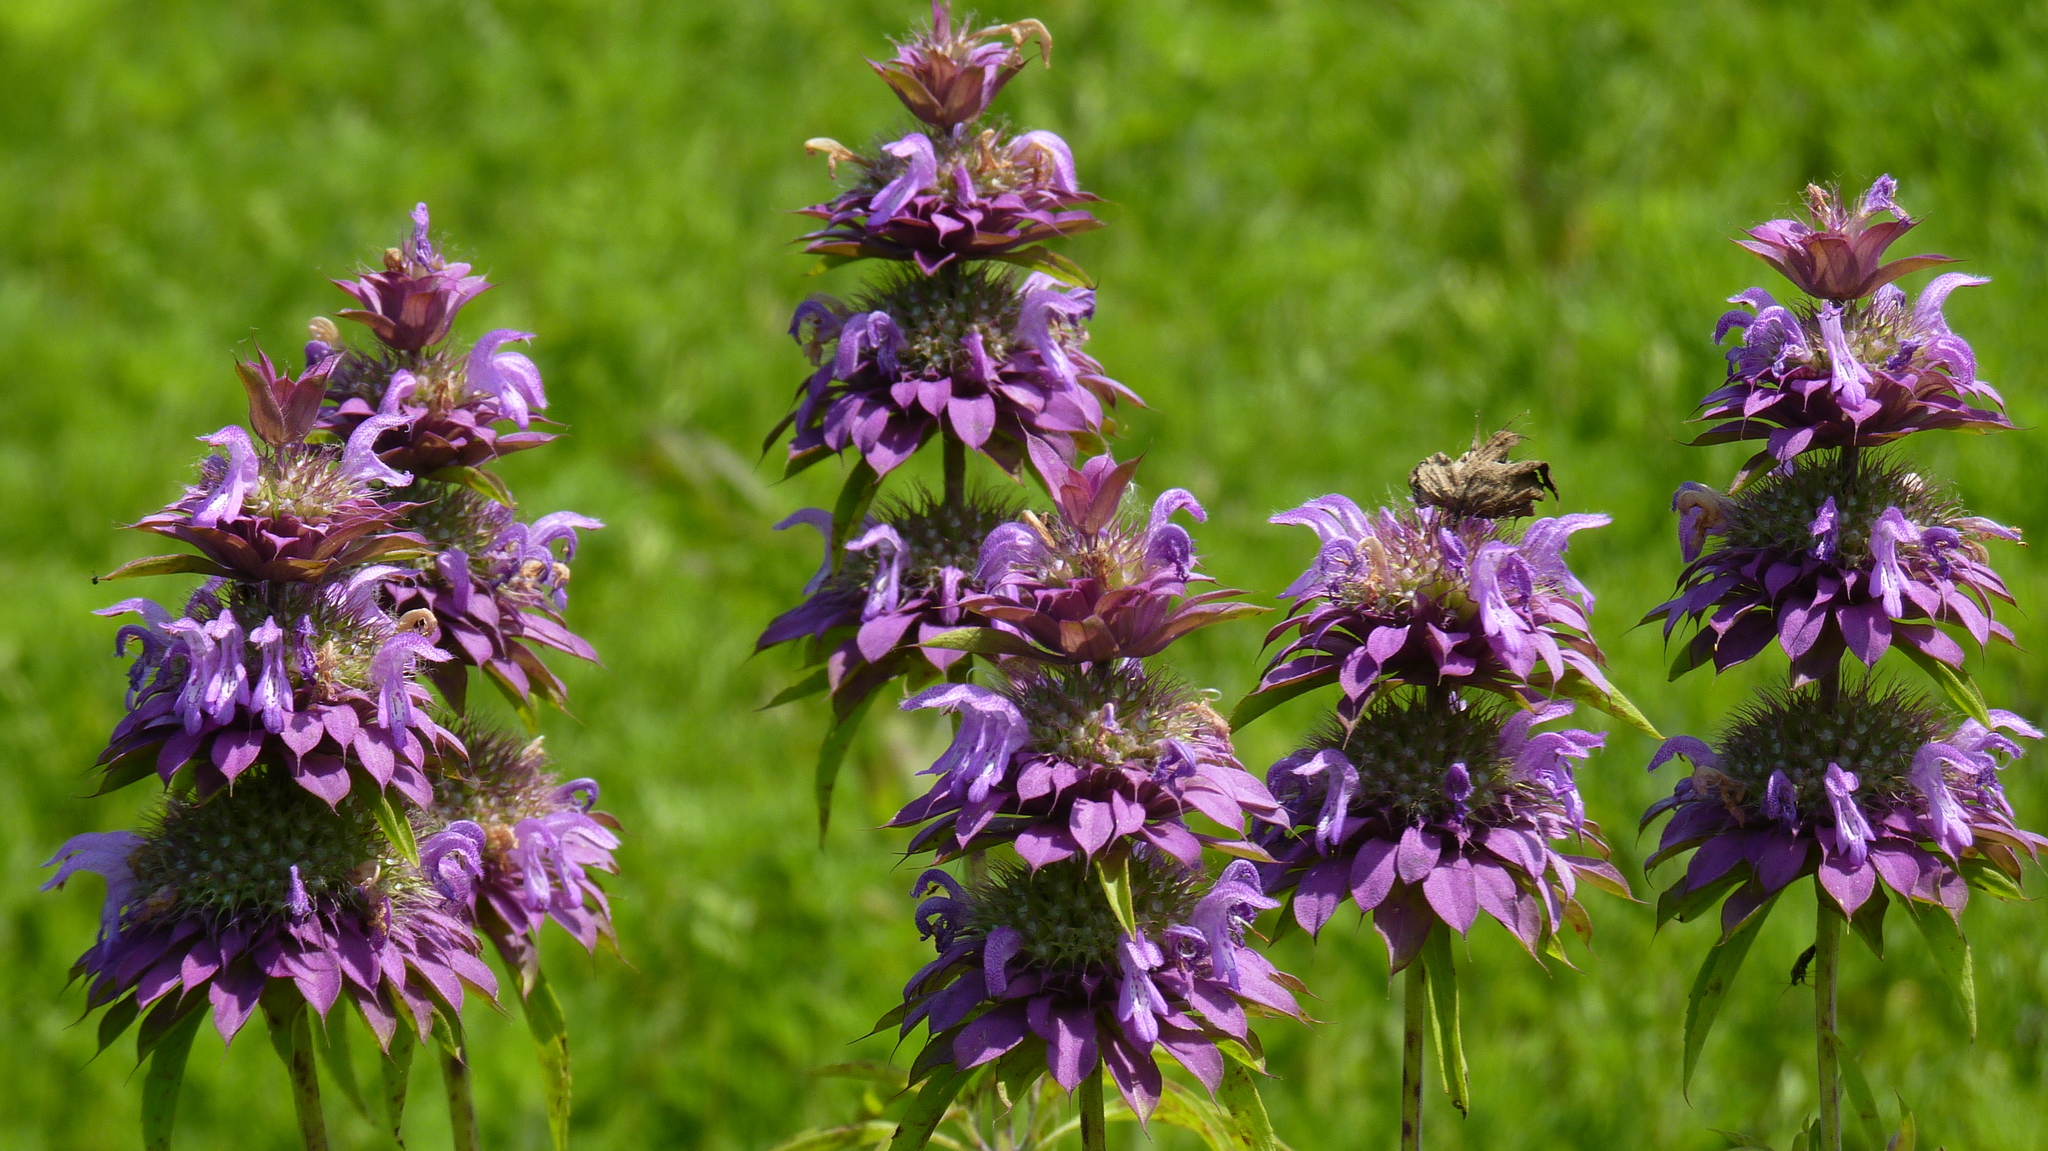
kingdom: Plantae
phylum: Tracheophyta
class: Magnoliopsida
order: Lamiales
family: Lamiaceae
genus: Monarda
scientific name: Monarda citriodora
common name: Lemon beebalm
